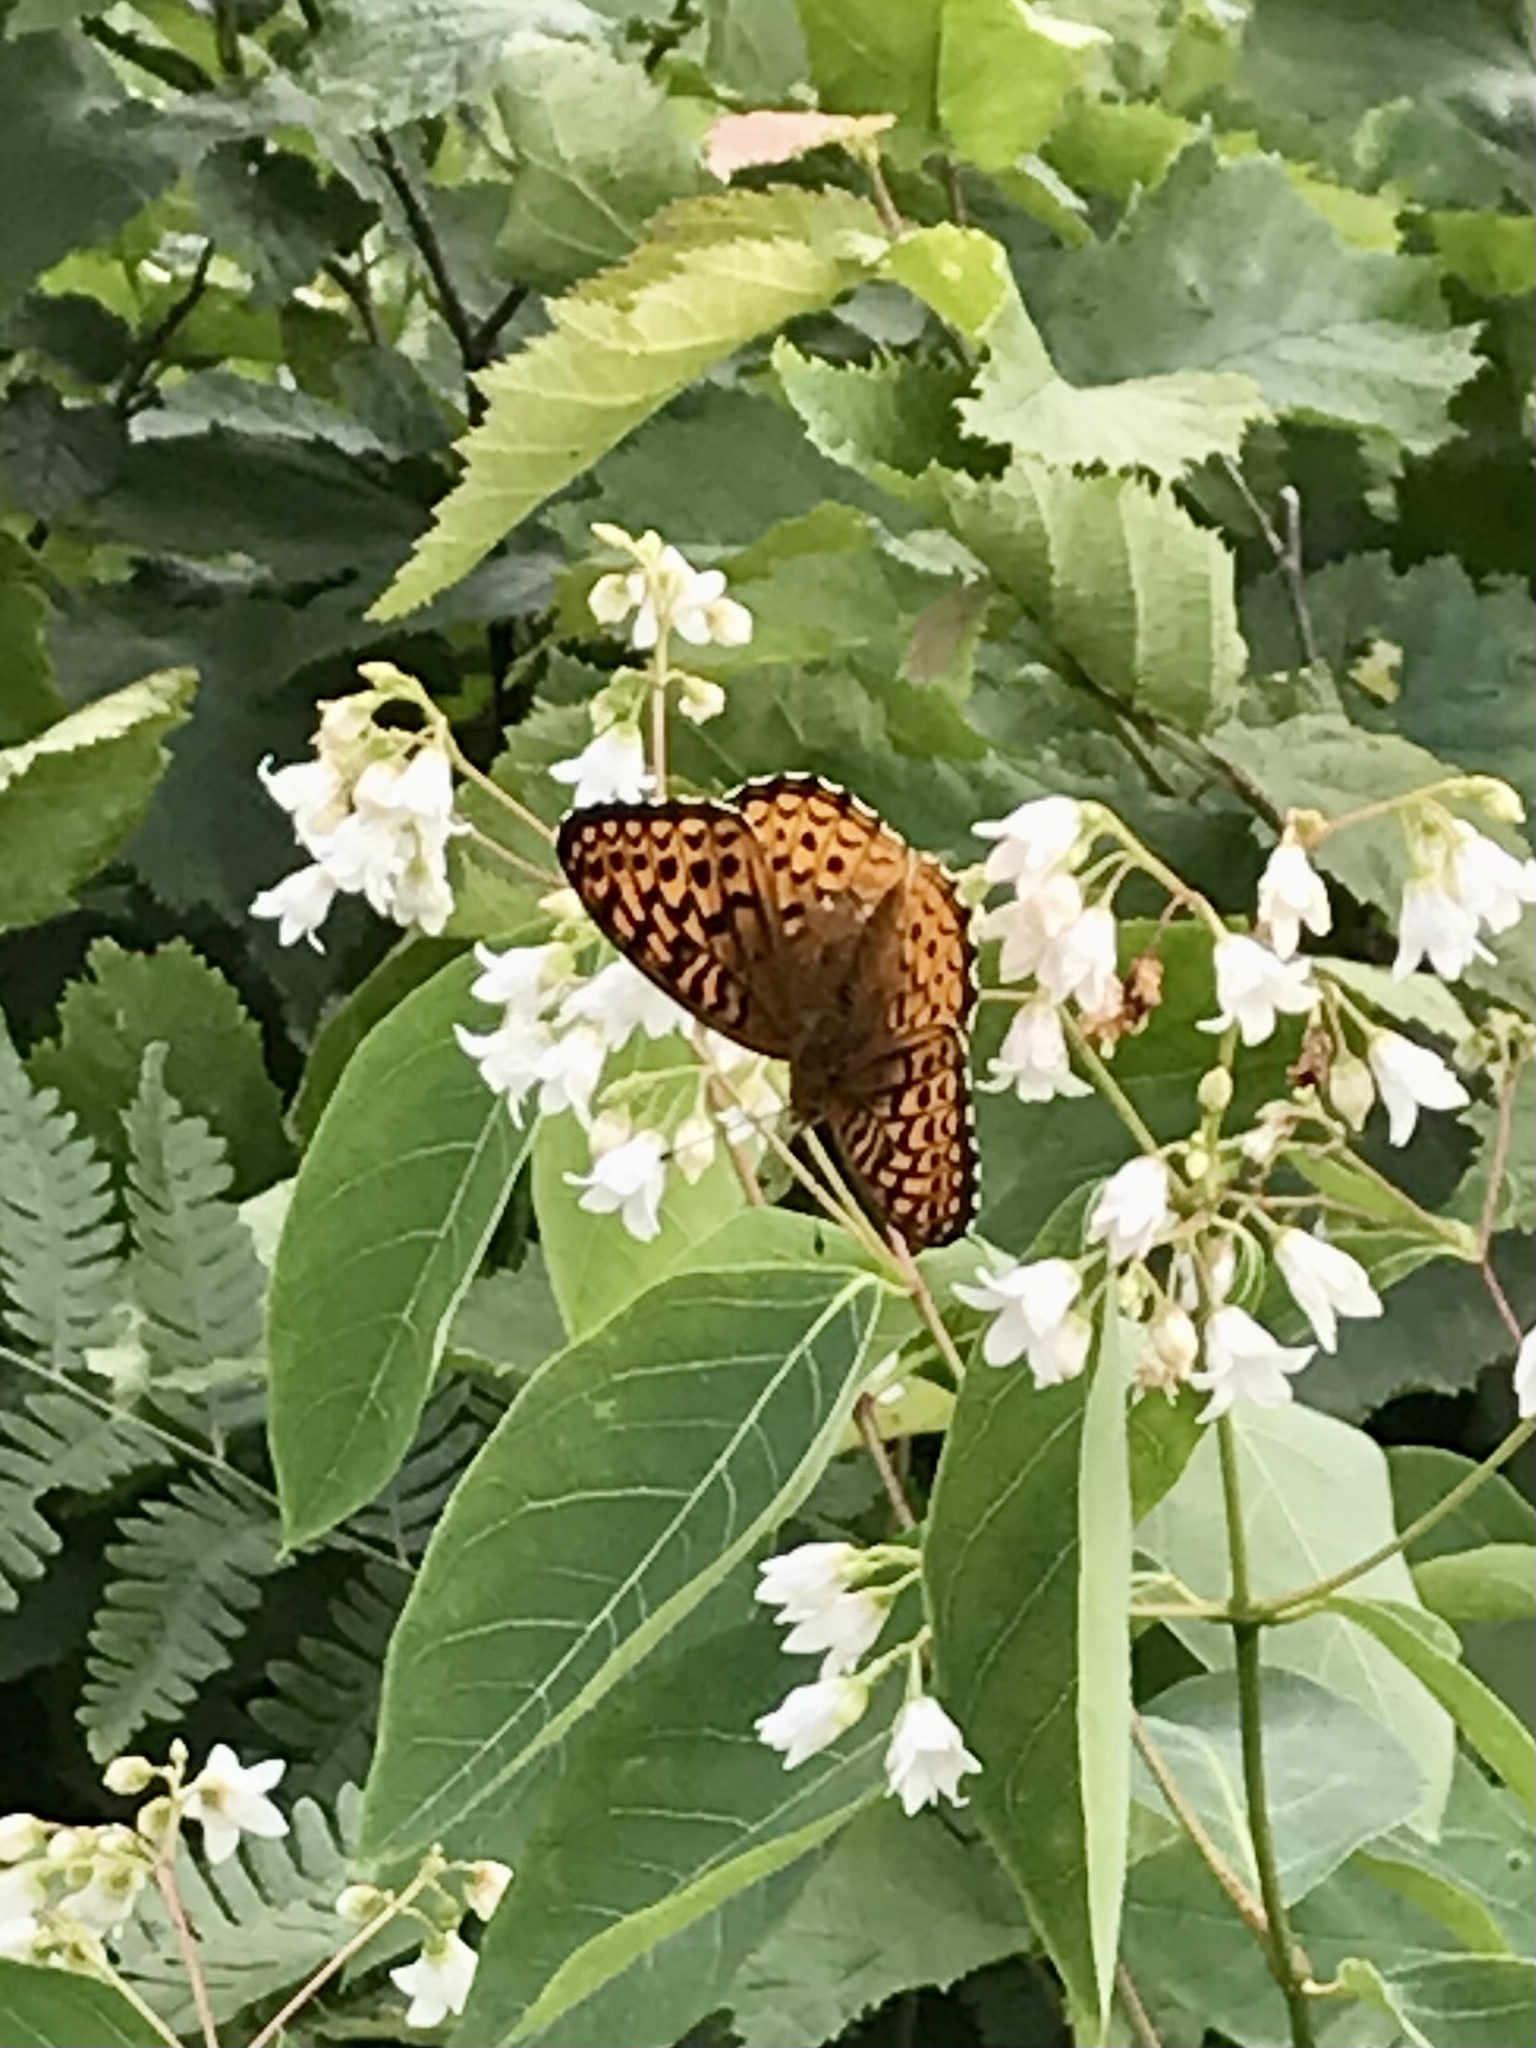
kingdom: Animalia
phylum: Arthropoda
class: Insecta
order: Lepidoptera
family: Nymphalidae
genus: Speyeria
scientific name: Speyeria atlantis
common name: Atlantis fritillary
